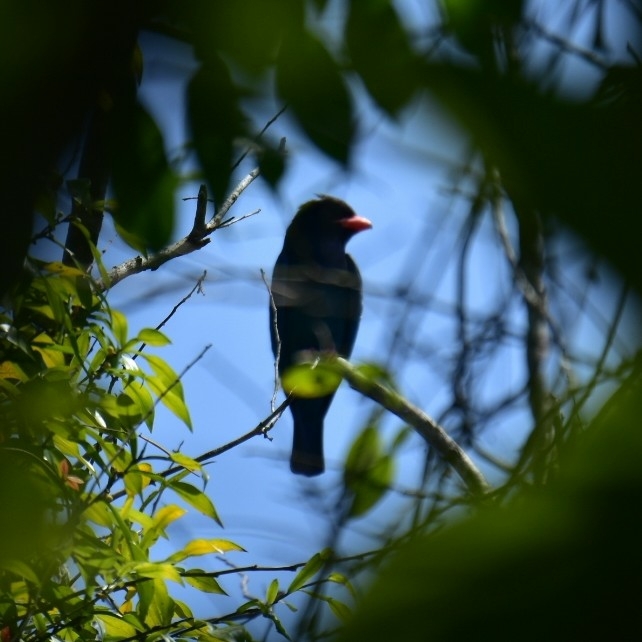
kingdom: Animalia
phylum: Chordata
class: Aves
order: Coraciiformes
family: Coraciidae
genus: Eurystomus
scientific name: Eurystomus orientalis
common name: Oriental dollarbird
